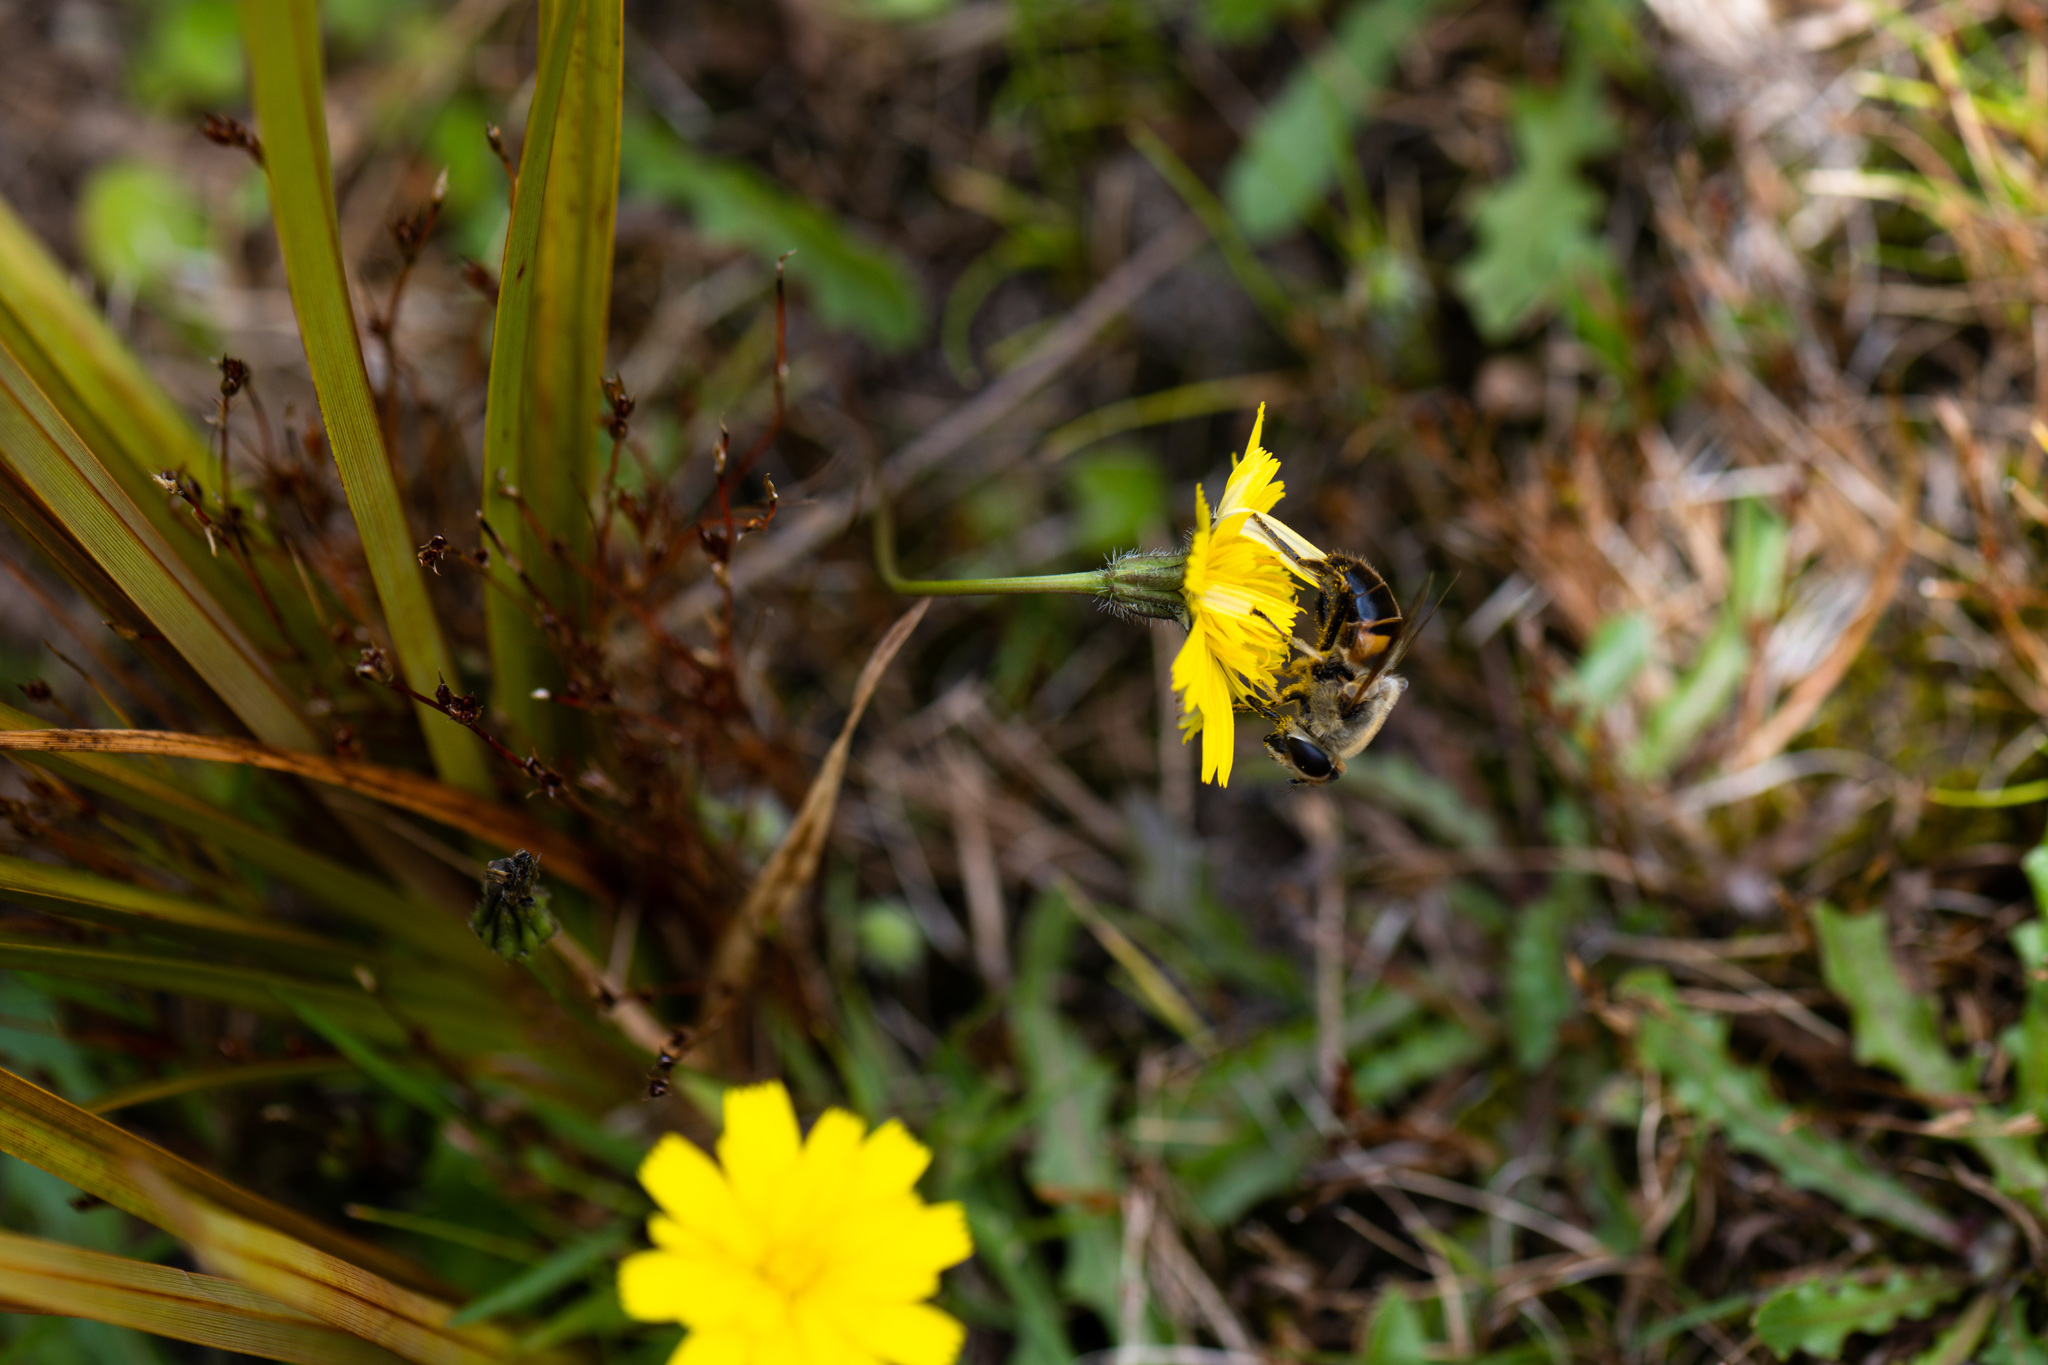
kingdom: Animalia
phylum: Arthropoda
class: Insecta
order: Diptera
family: Syrphidae
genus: Eristalis
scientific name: Eristalis tenax
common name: Drone fly
